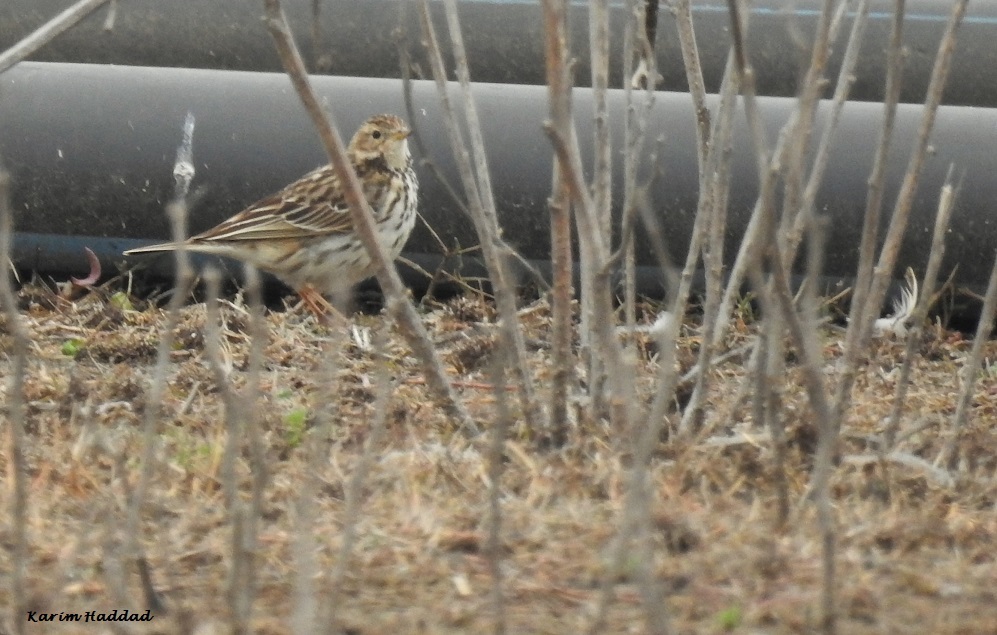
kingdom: Animalia
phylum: Chordata
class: Aves
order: Passeriformes
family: Motacillidae
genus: Anthus
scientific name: Anthus pratensis
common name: Meadow pipit
